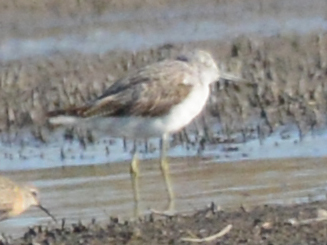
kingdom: Animalia
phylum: Chordata
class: Aves
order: Charadriiformes
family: Scolopacidae
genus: Tringa
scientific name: Tringa nebularia
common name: Common greenshank
